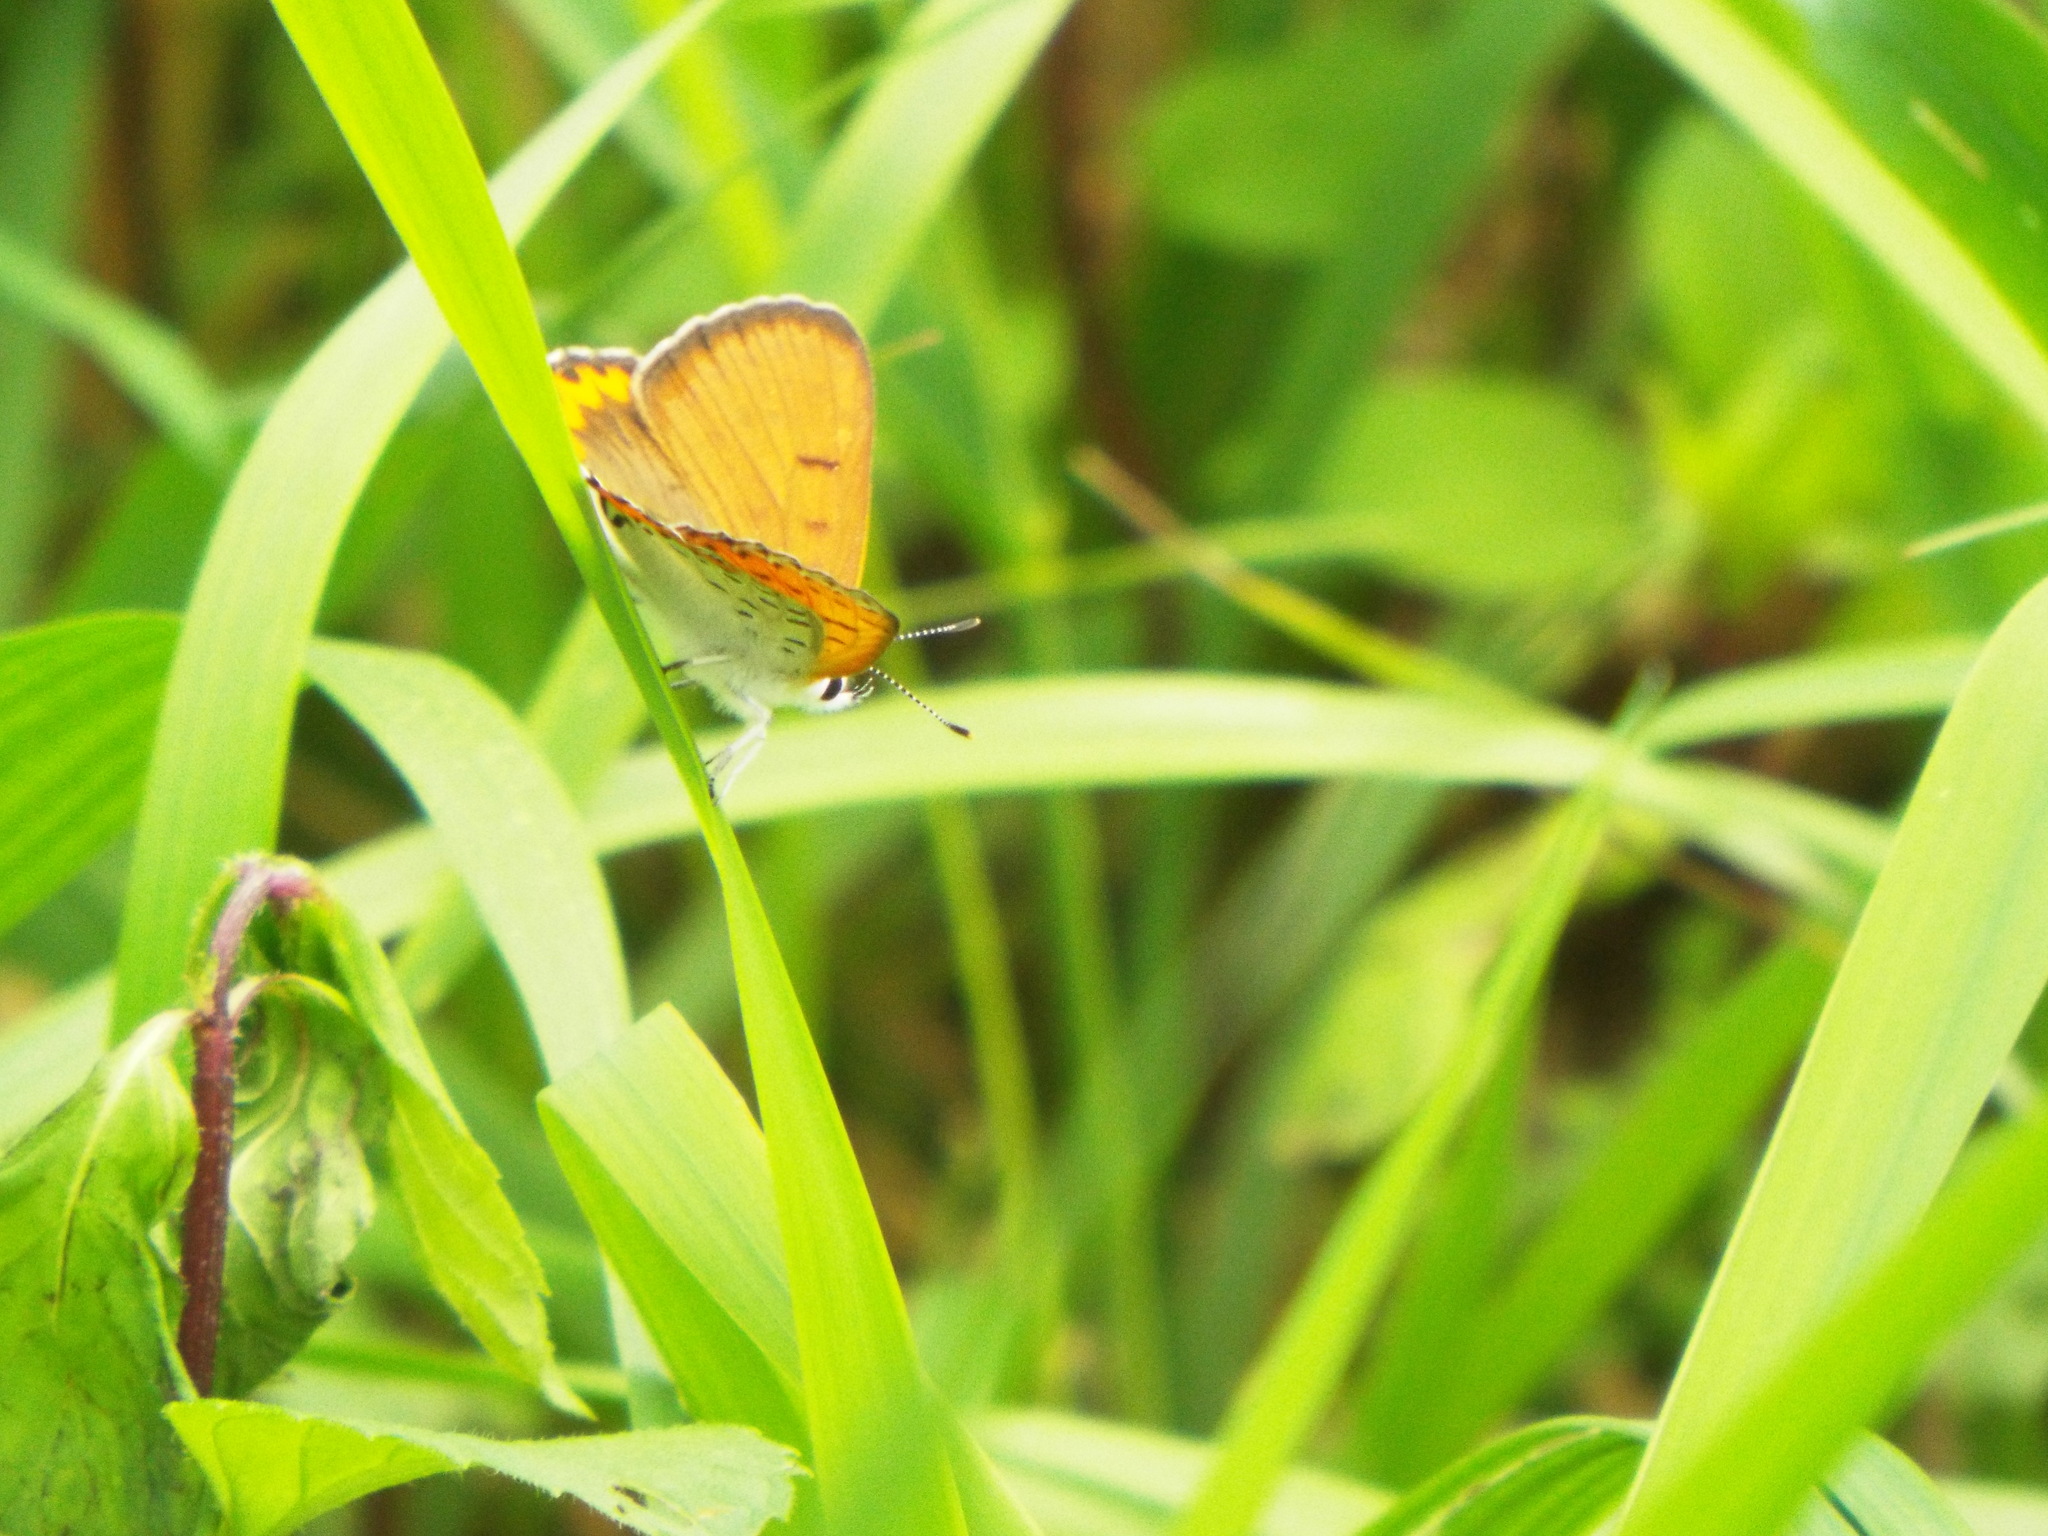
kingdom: Animalia
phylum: Arthropoda
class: Insecta
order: Lepidoptera
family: Lycaenidae
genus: Tharsalea
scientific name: Tharsalea hyllus
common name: Bronze copper
